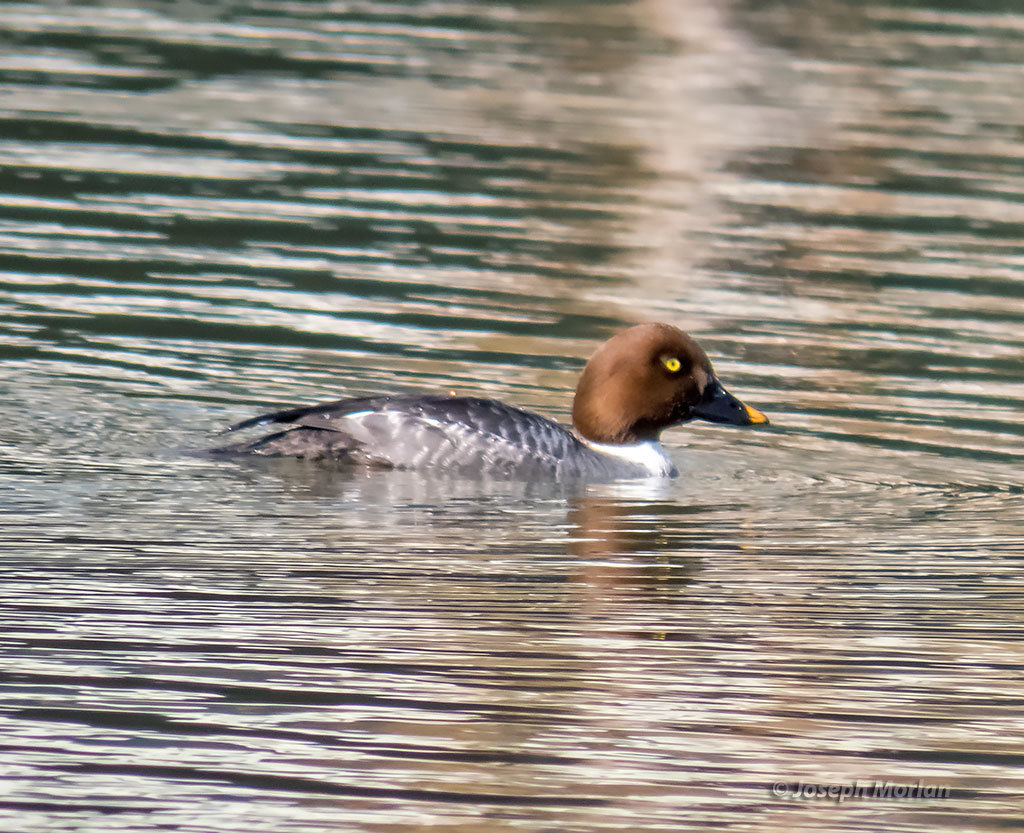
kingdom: Animalia
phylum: Chordata
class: Aves
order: Anseriformes
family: Anatidae
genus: Bucephala
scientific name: Bucephala clangula
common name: Common goldeneye
